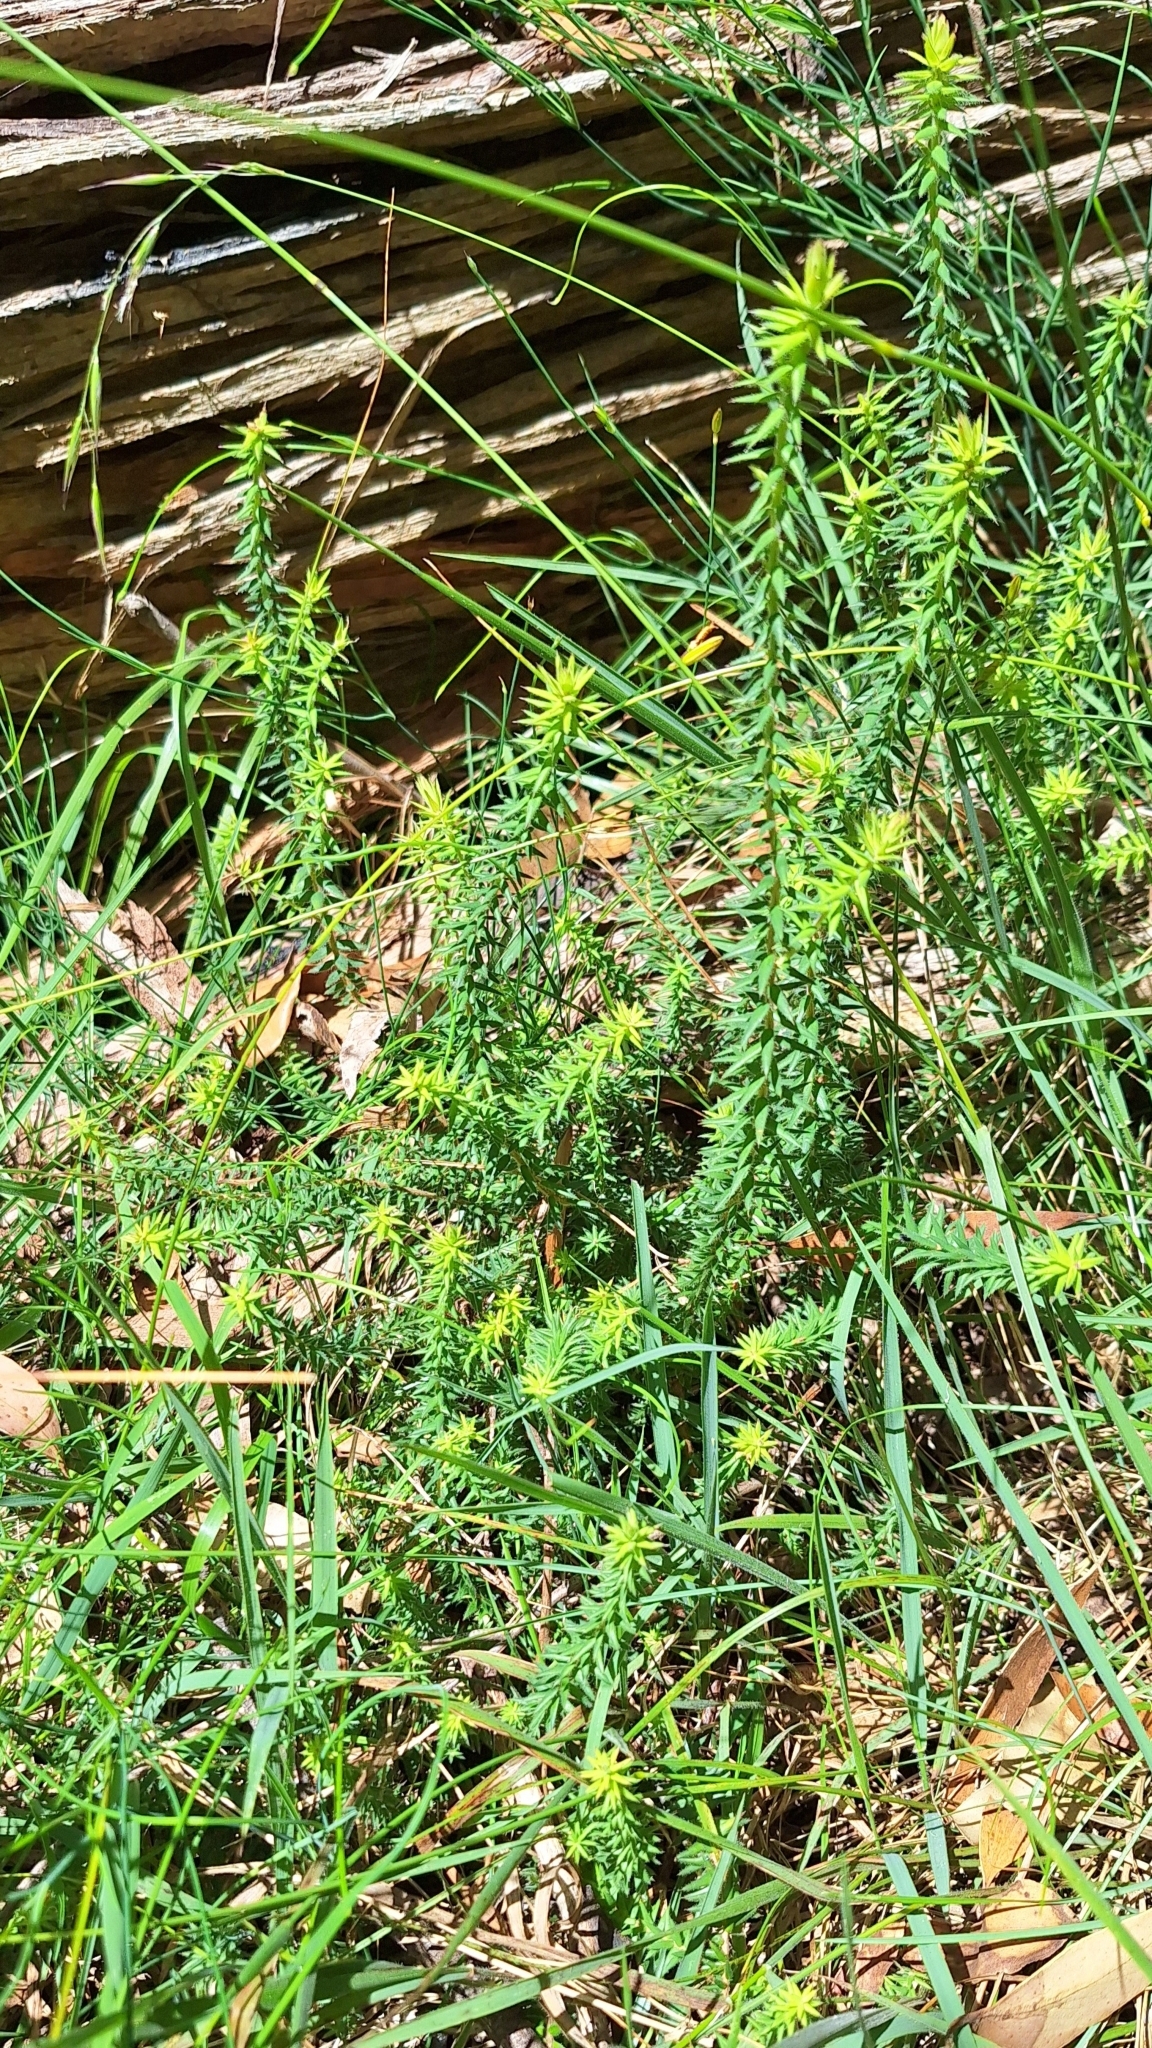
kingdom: Plantae
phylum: Tracheophyta
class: Magnoliopsida
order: Ericales
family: Ericaceae
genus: Acrotriche
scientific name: Acrotriche fasciculiflora
